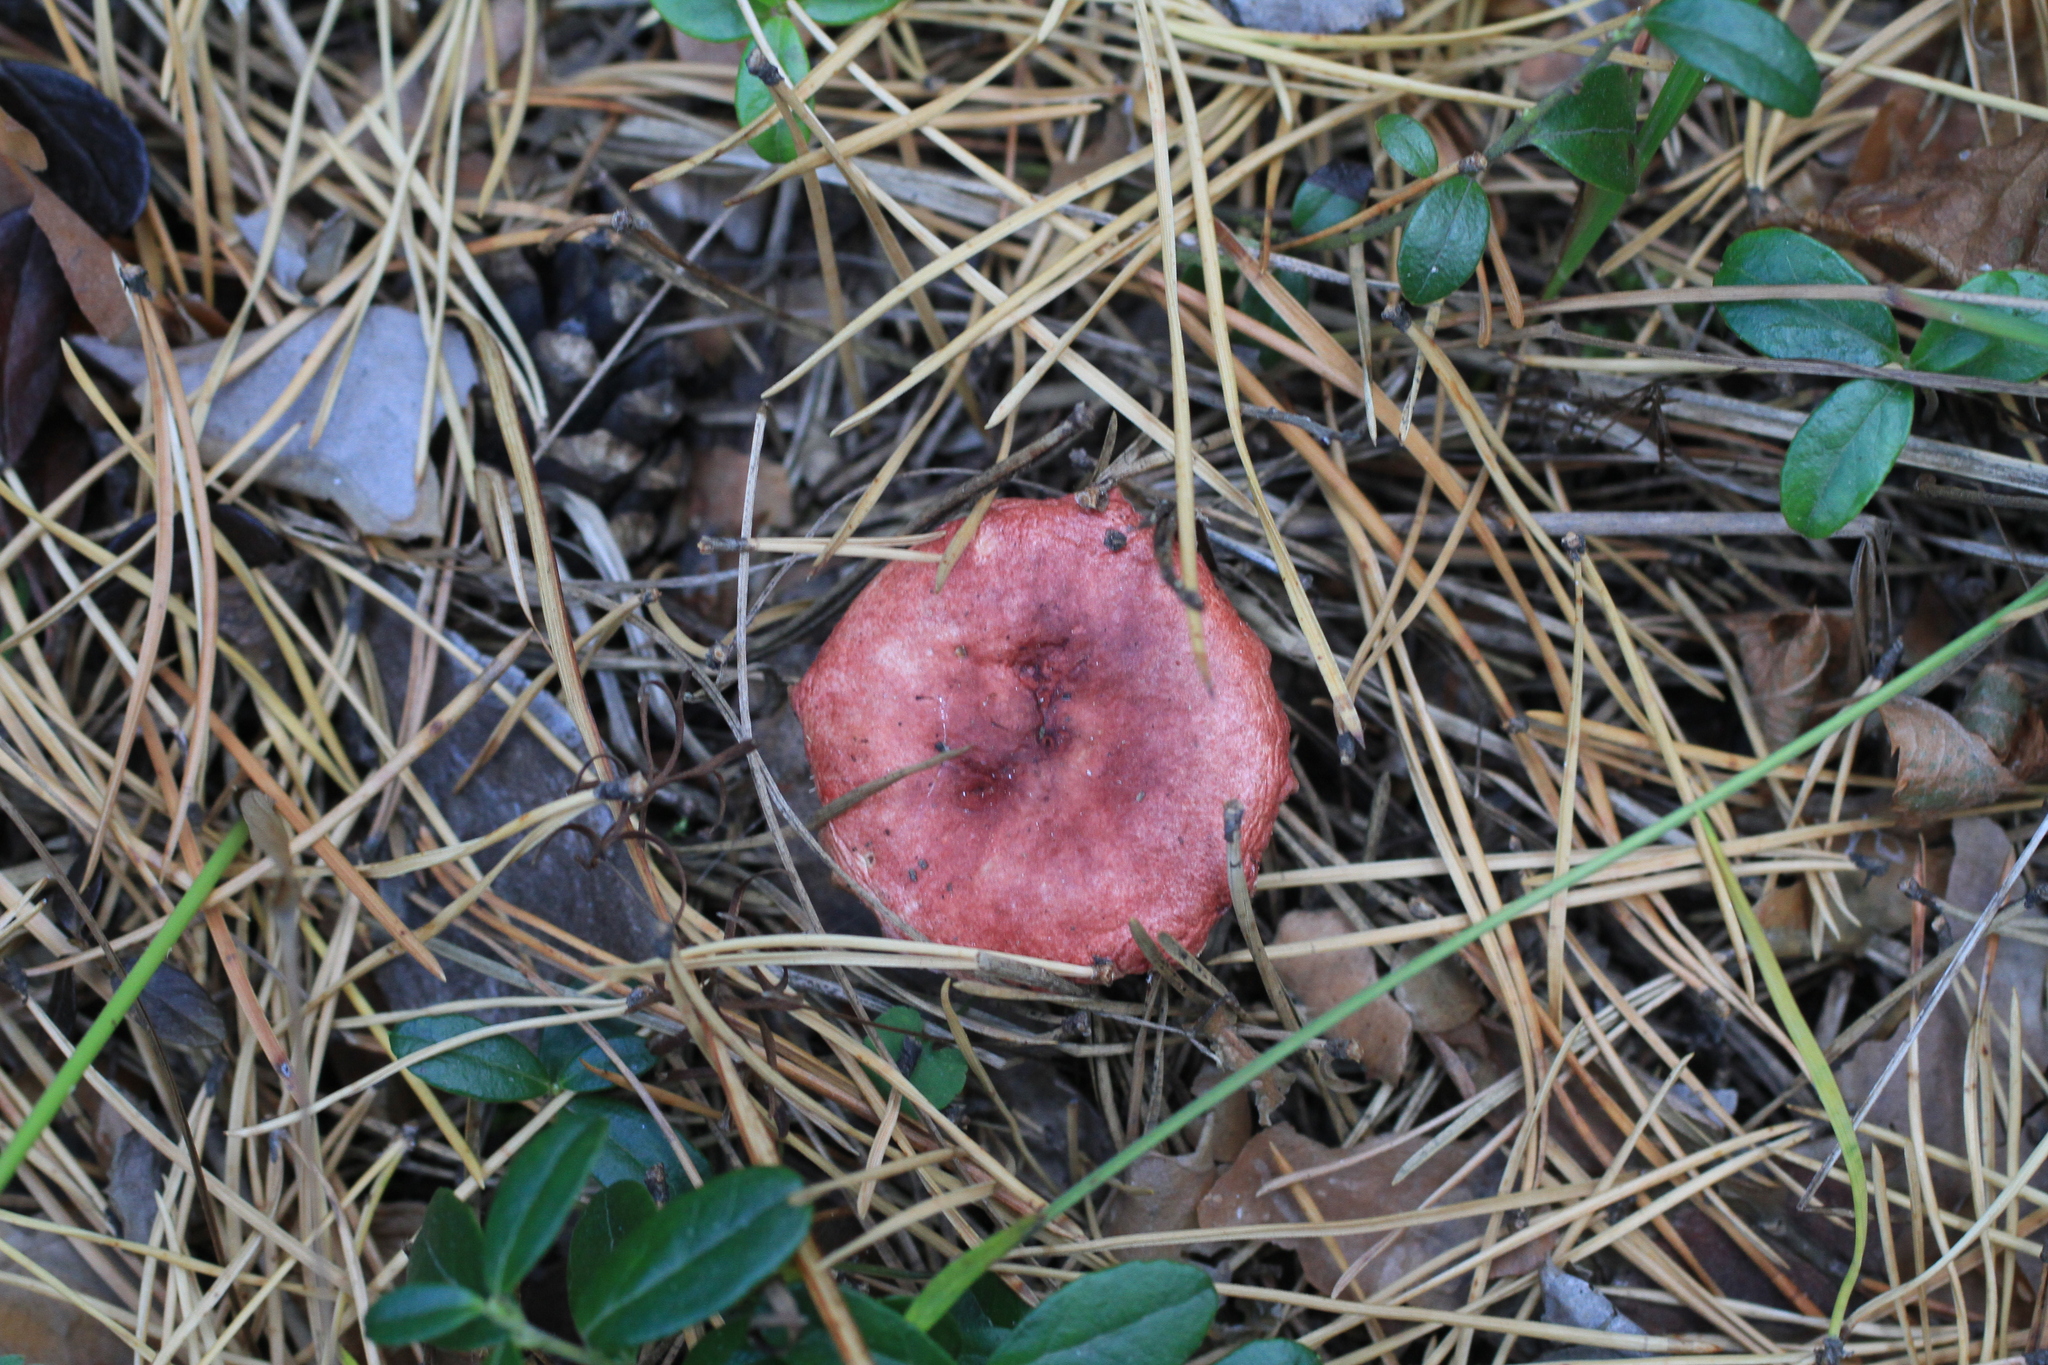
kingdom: Fungi
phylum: Basidiomycota
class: Agaricomycetes
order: Russulales
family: Russulaceae
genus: Russula
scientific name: Russula
